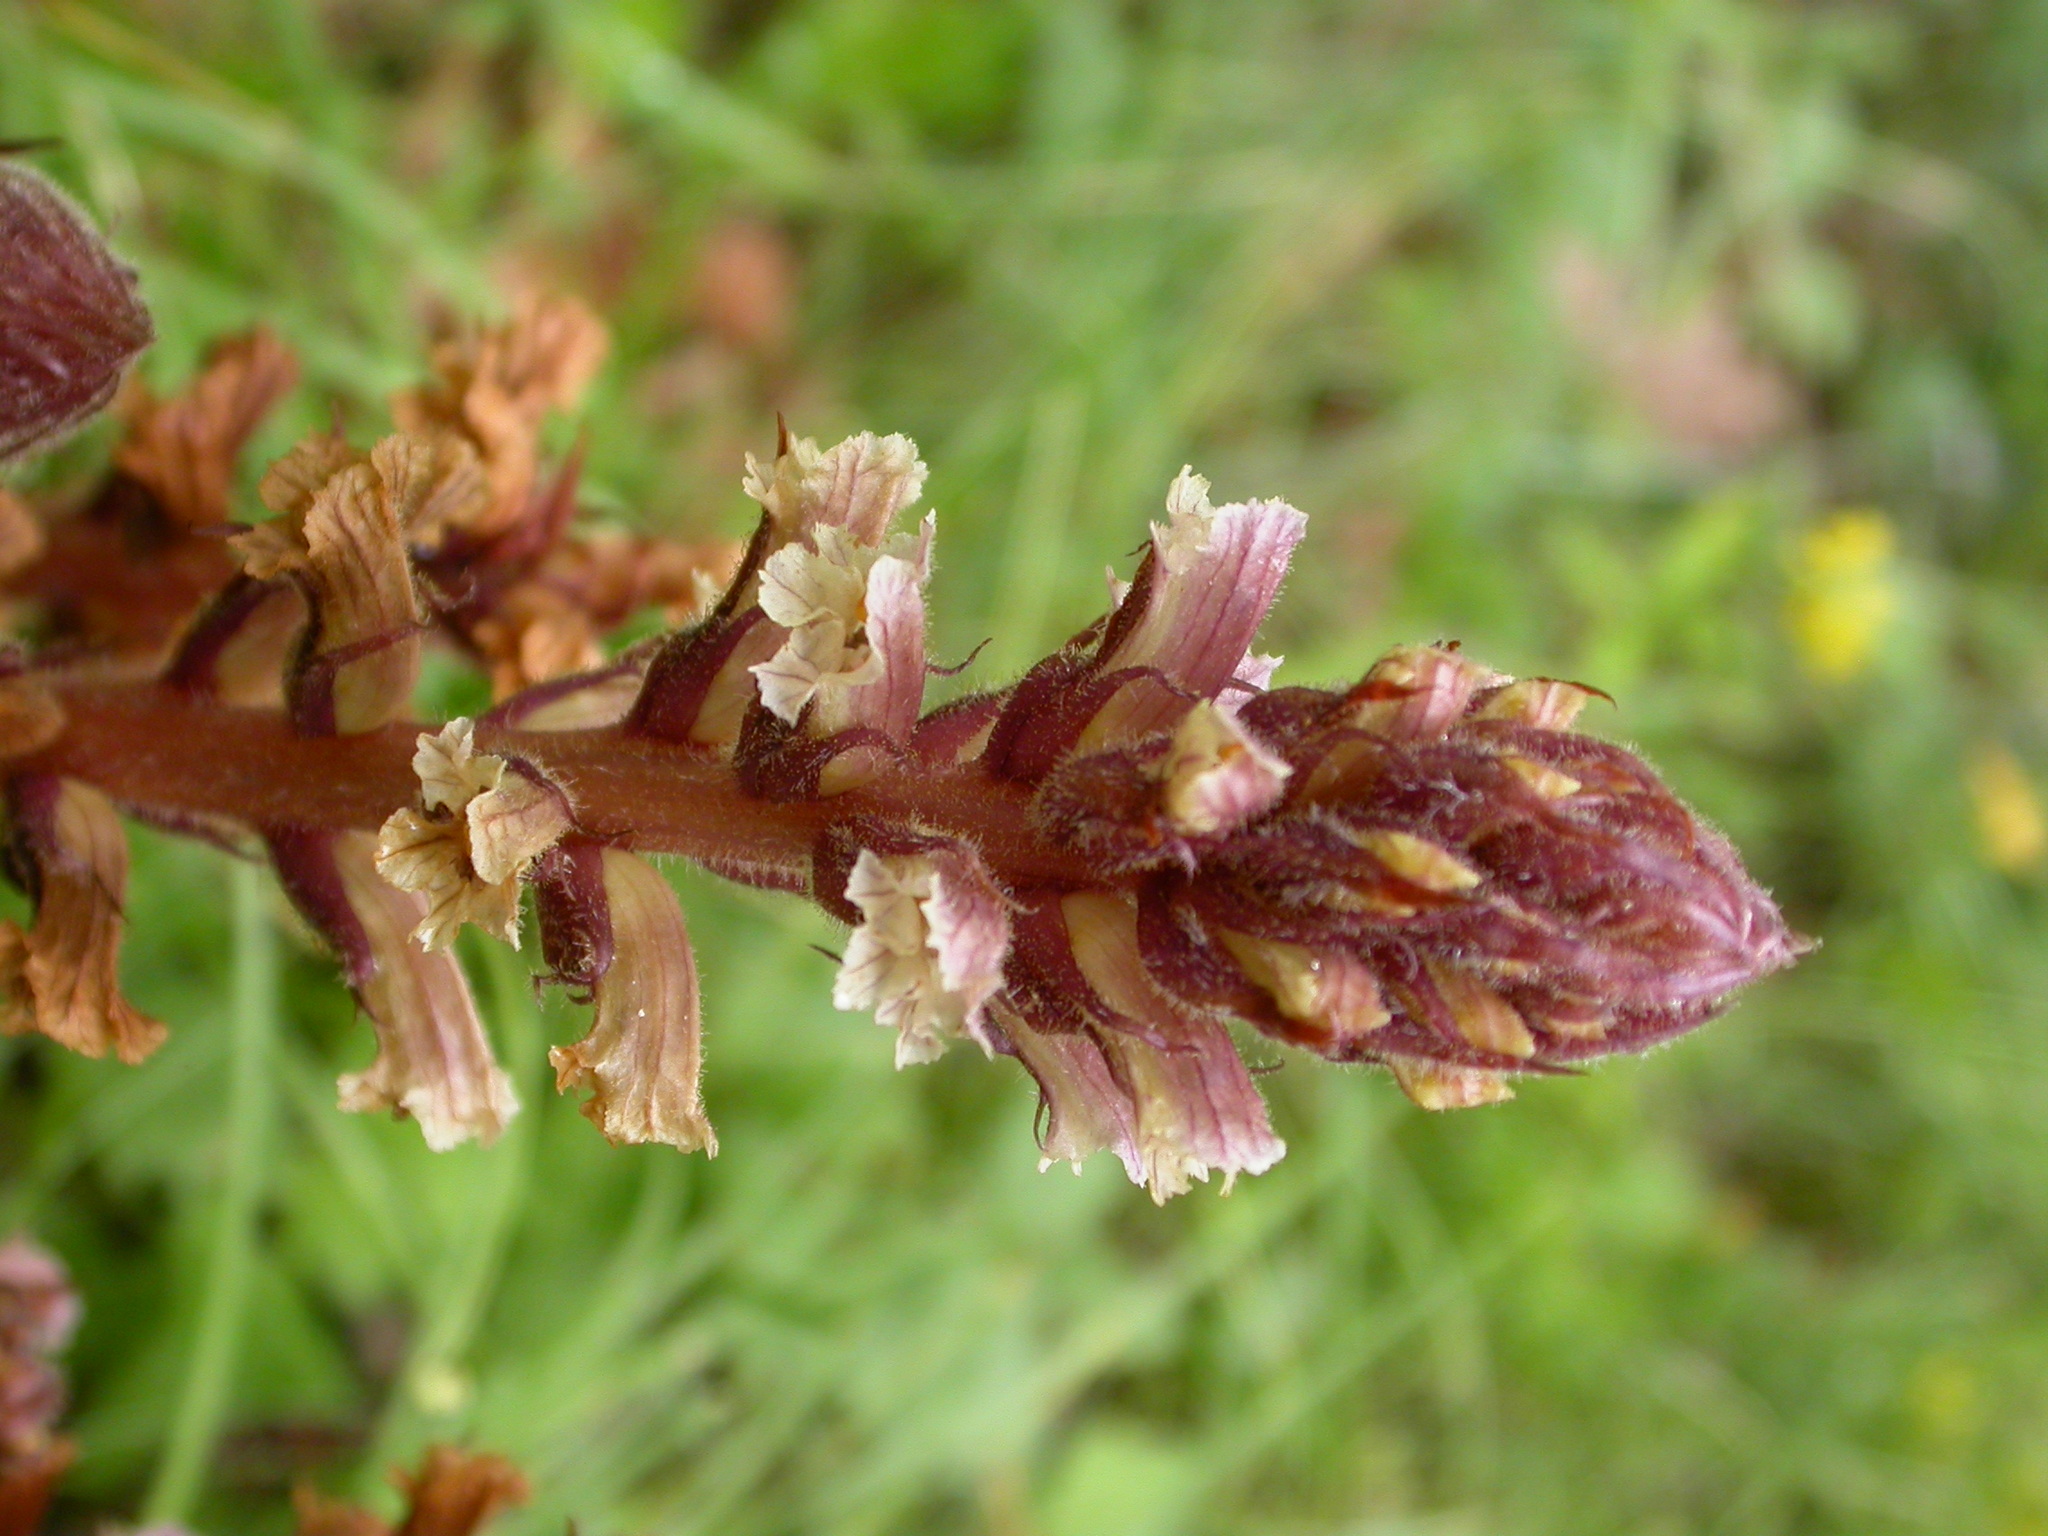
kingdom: Plantae
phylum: Tracheophyta
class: Magnoliopsida
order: Lamiales
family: Orobanchaceae
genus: Orobanche
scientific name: Orobanche hederae
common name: Ivy broomrape
